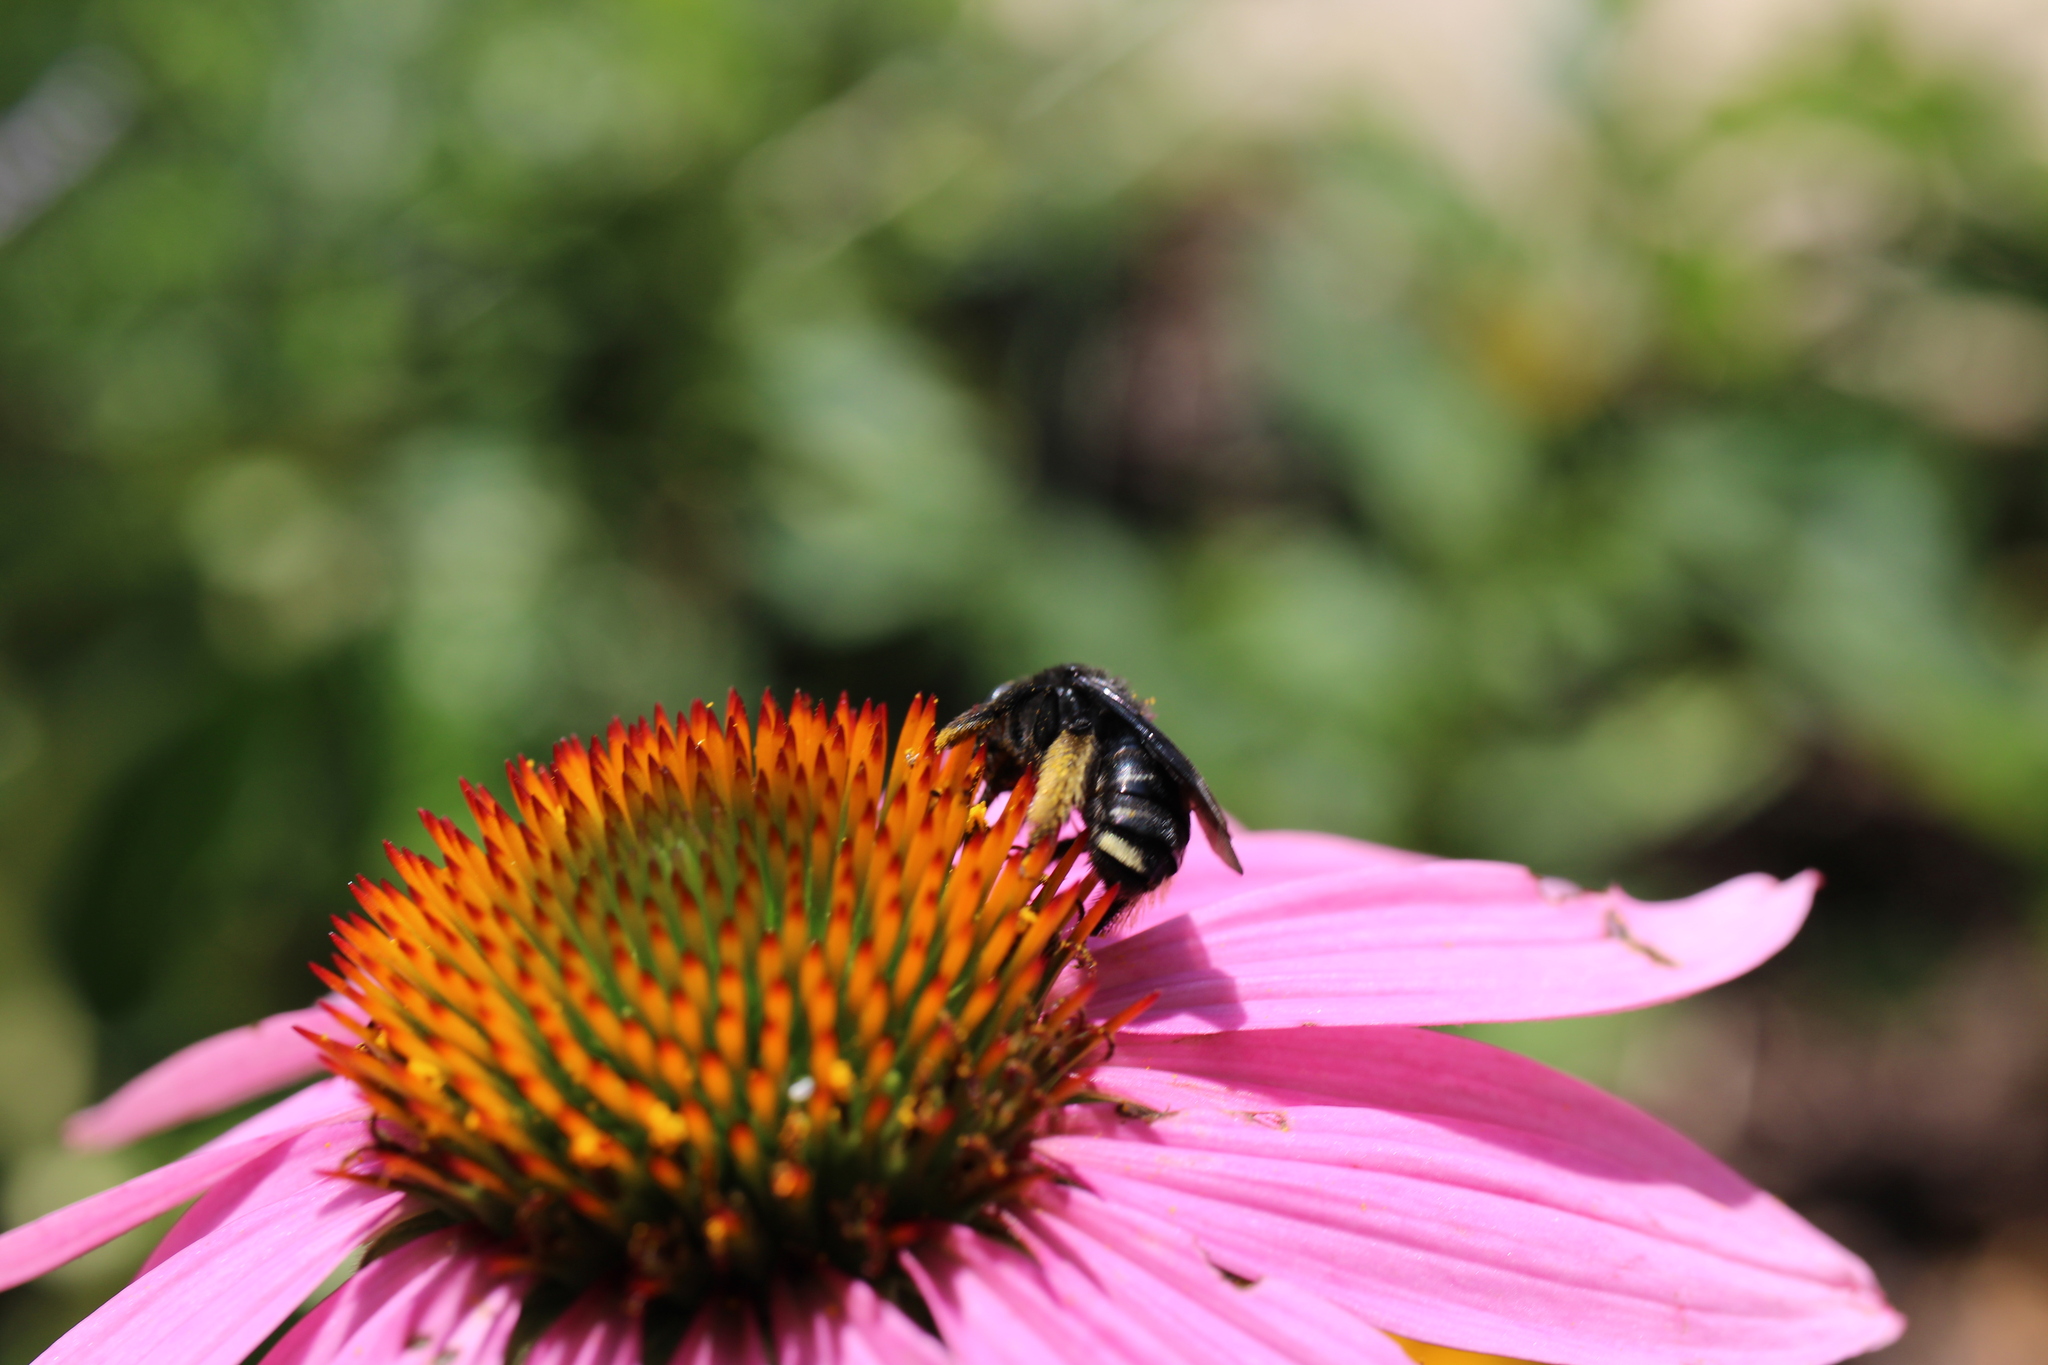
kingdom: Animalia
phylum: Arthropoda
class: Insecta
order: Hymenoptera
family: Apidae
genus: Melissodes
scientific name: Melissodes bimaculatus
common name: Two-spotted long-horned bee
